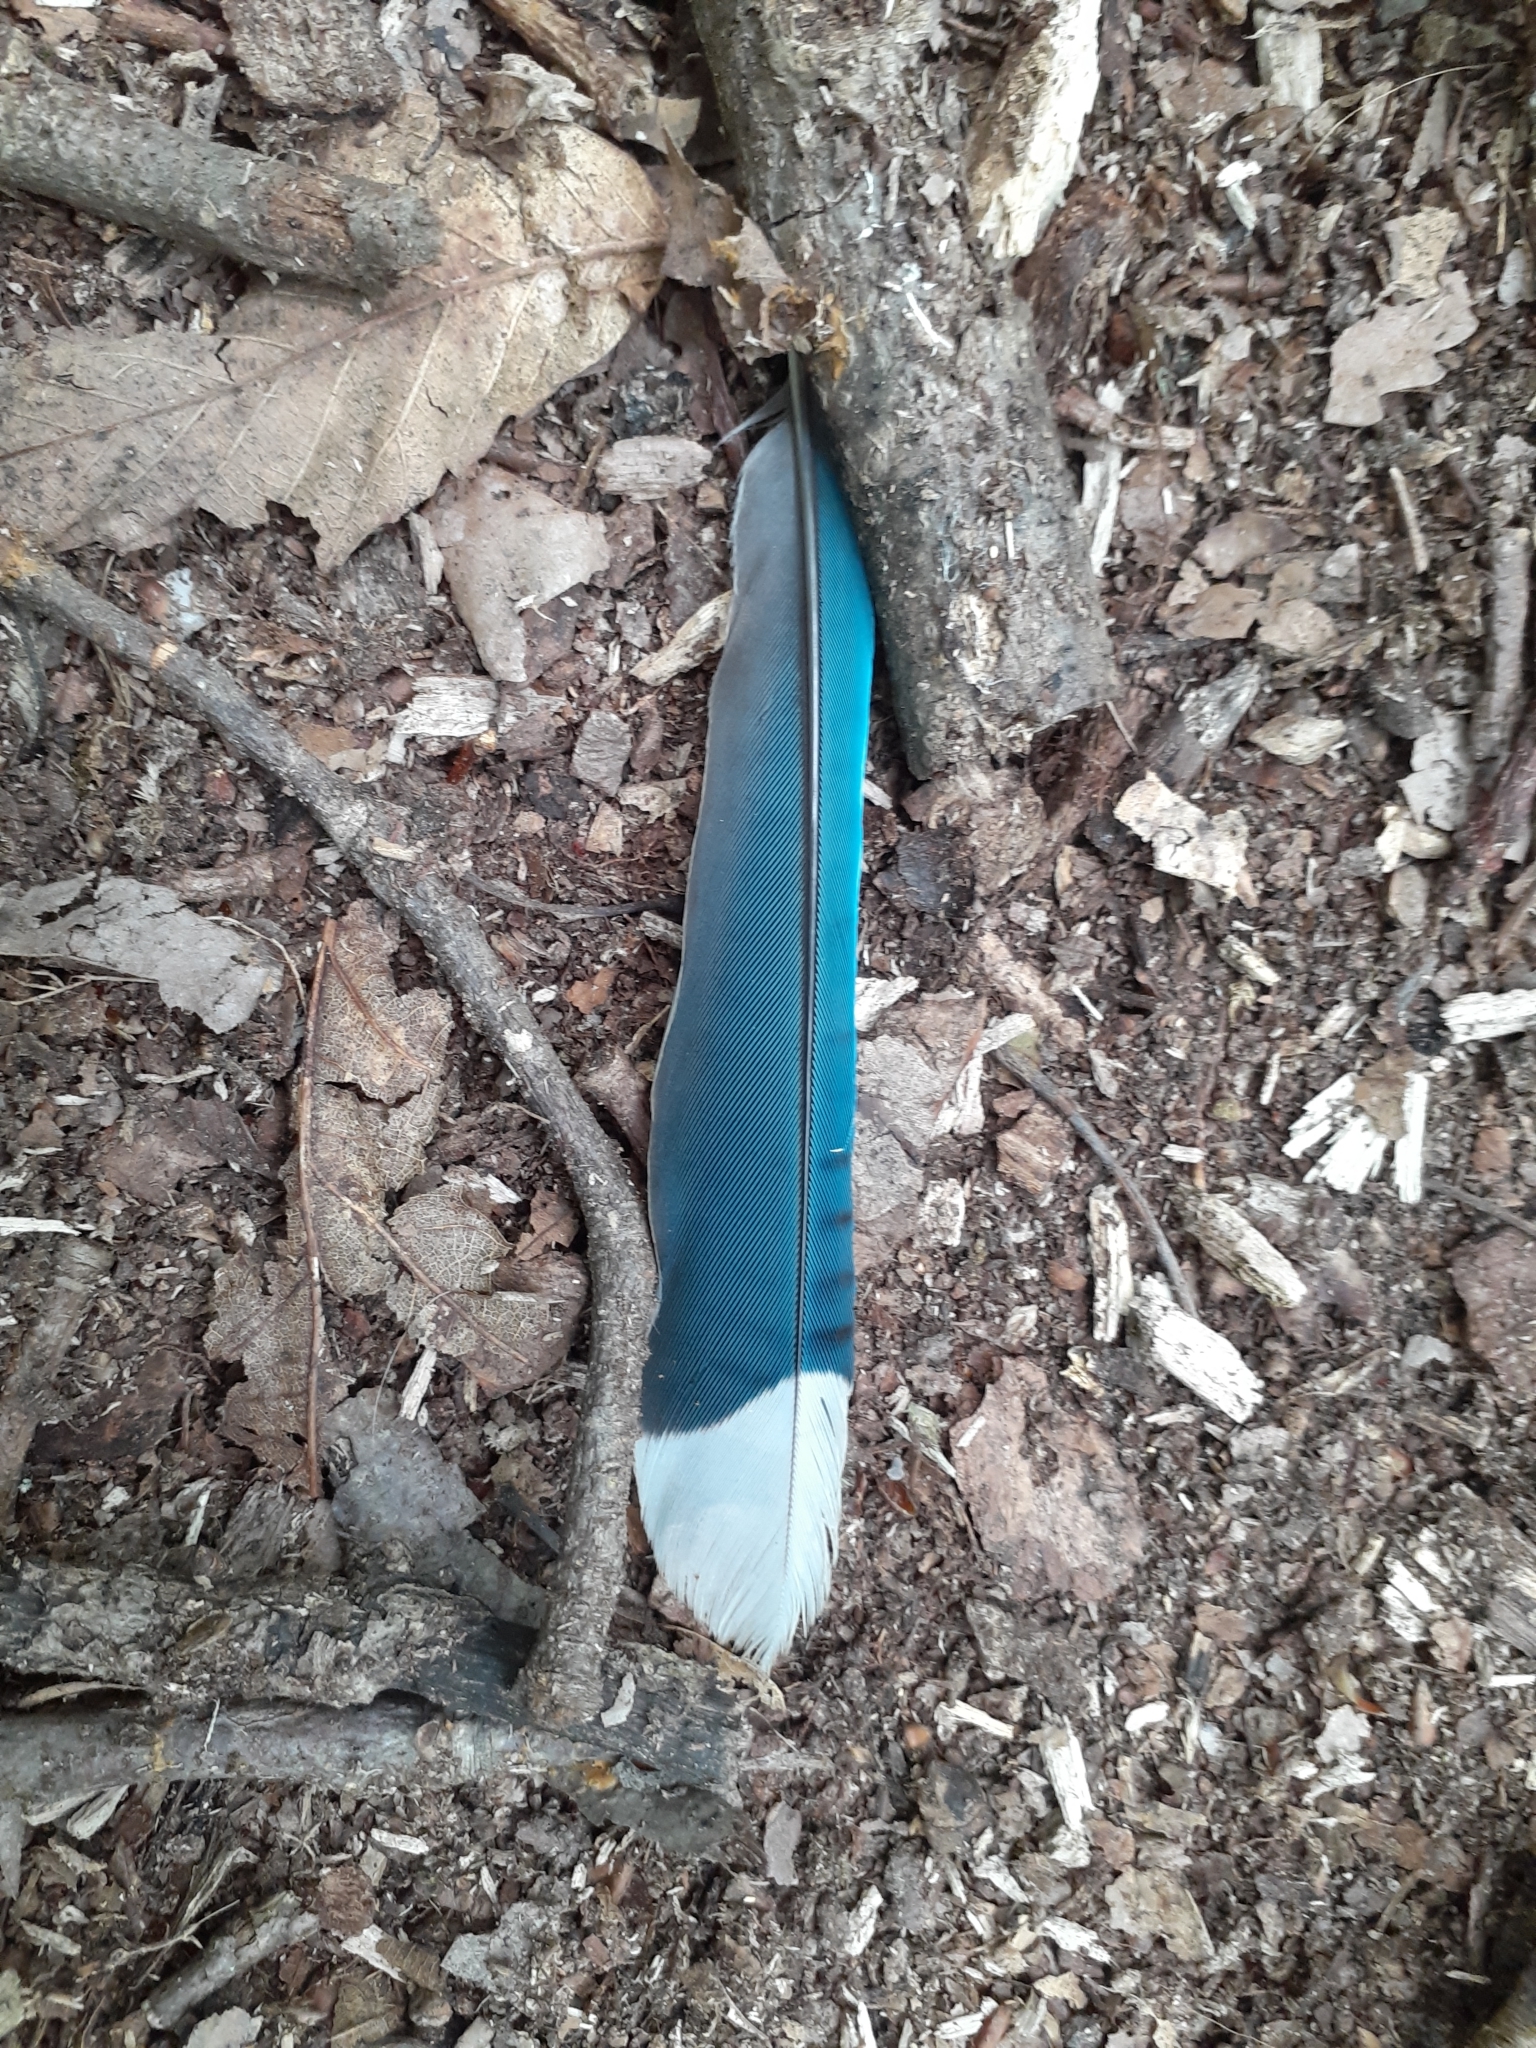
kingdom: Animalia
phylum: Chordata
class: Aves
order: Passeriformes
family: Corvidae
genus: Cyanocitta
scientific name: Cyanocitta cristata
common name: Blue jay
